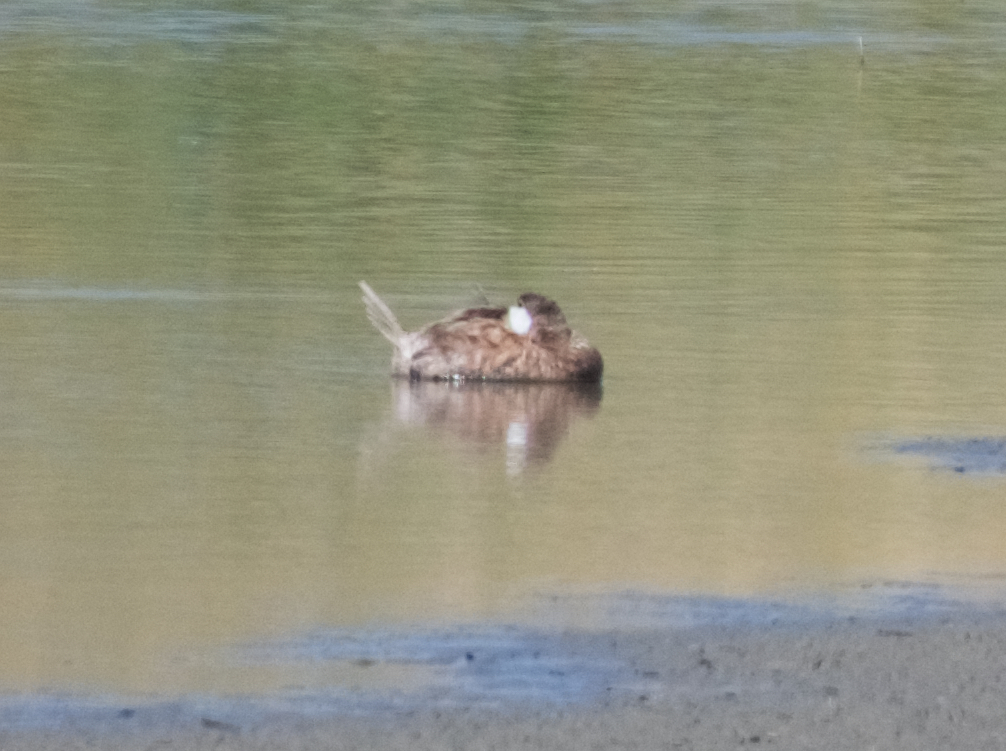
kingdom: Animalia
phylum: Chordata
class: Aves
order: Anseriformes
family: Anatidae
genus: Oxyura
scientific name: Oxyura jamaicensis
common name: Ruddy duck
